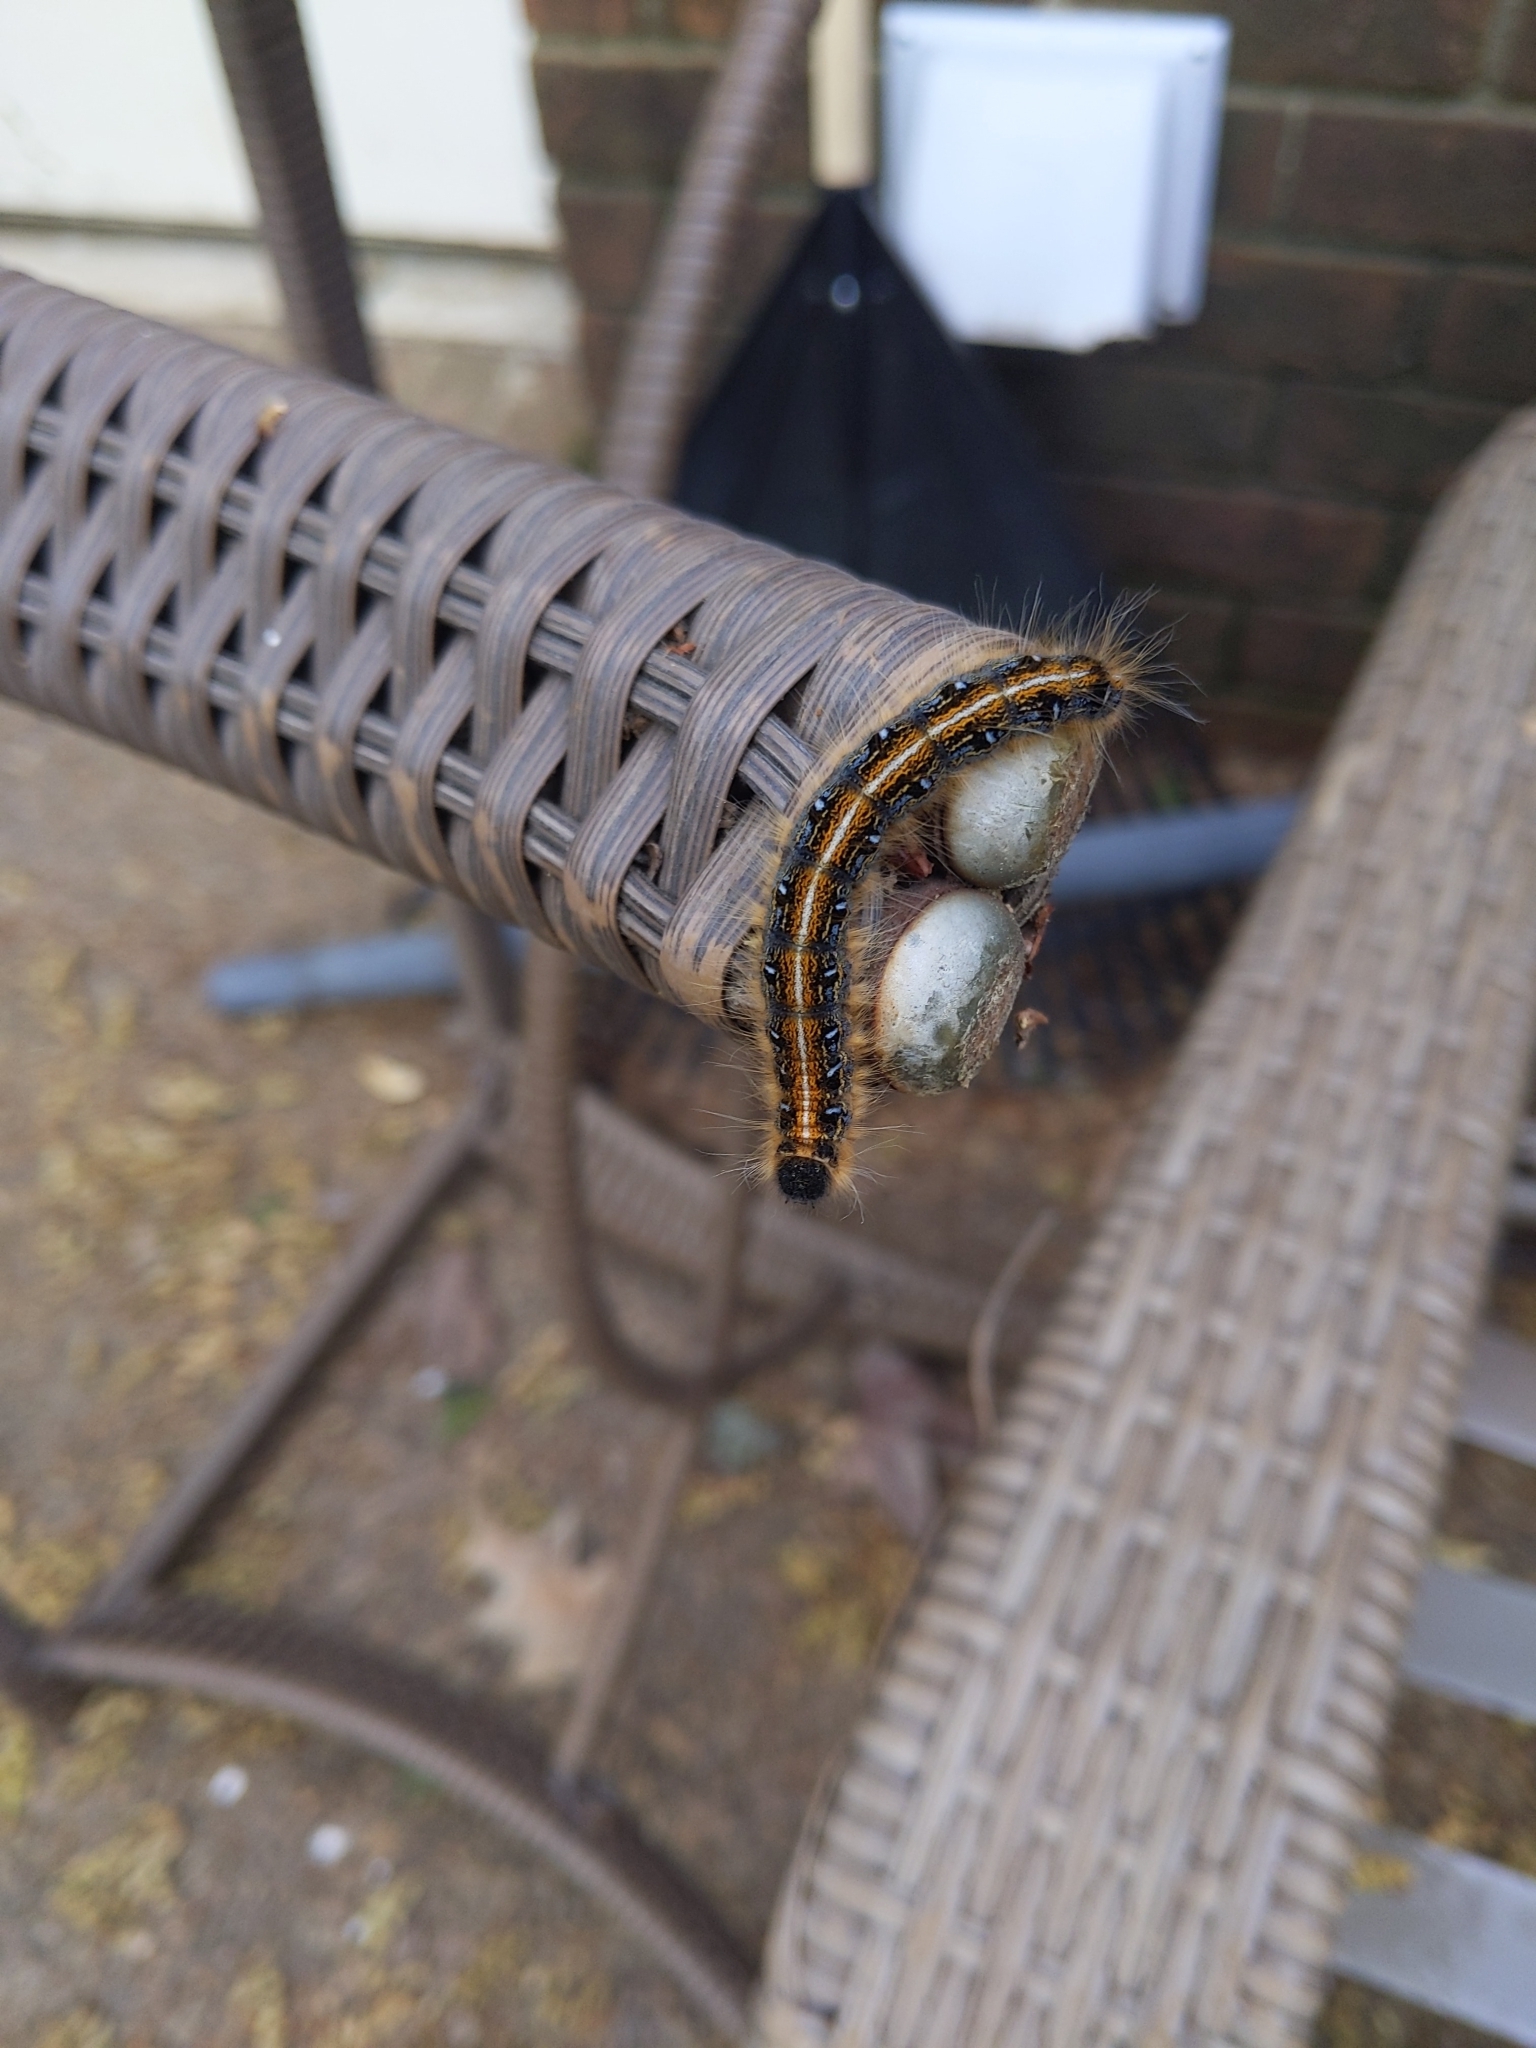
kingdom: Animalia
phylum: Arthropoda
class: Insecta
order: Lepidoptera
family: Lasiocampidae
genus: Malacosoma
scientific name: Malacosoma americana
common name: Eastern tent caterpillar moth
